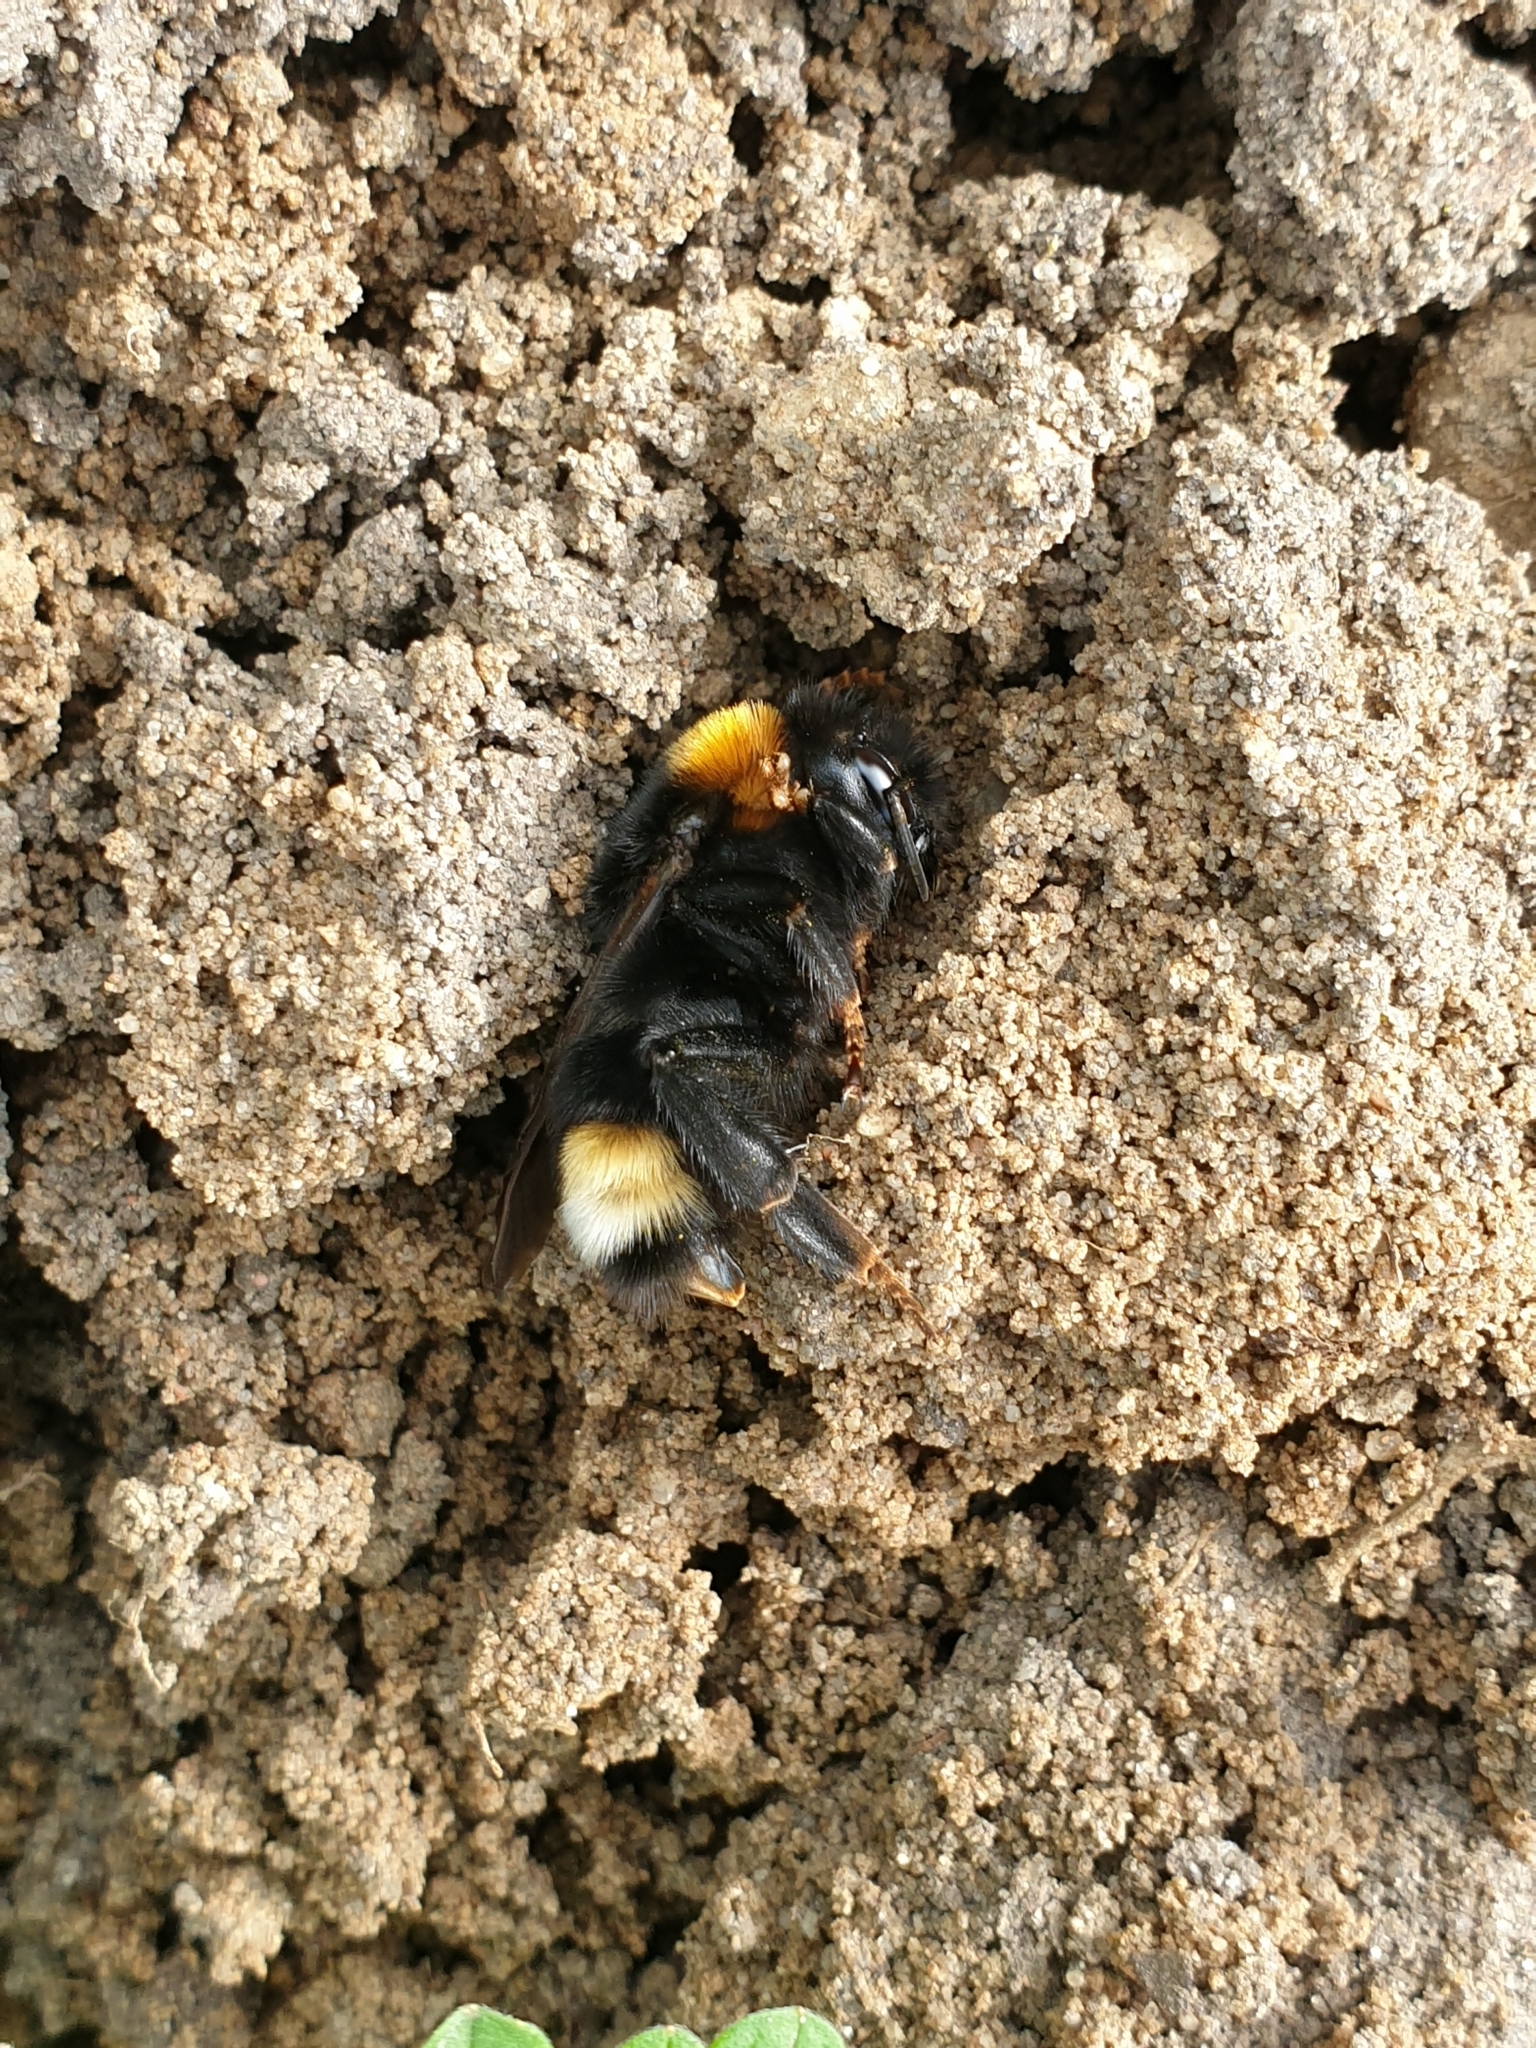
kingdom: Animalia
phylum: Arthropoda
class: Insecta
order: Hymenoptera
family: Apidae
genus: Bombus
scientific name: Bombus vestalis
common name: Vestal cuckoo bee
